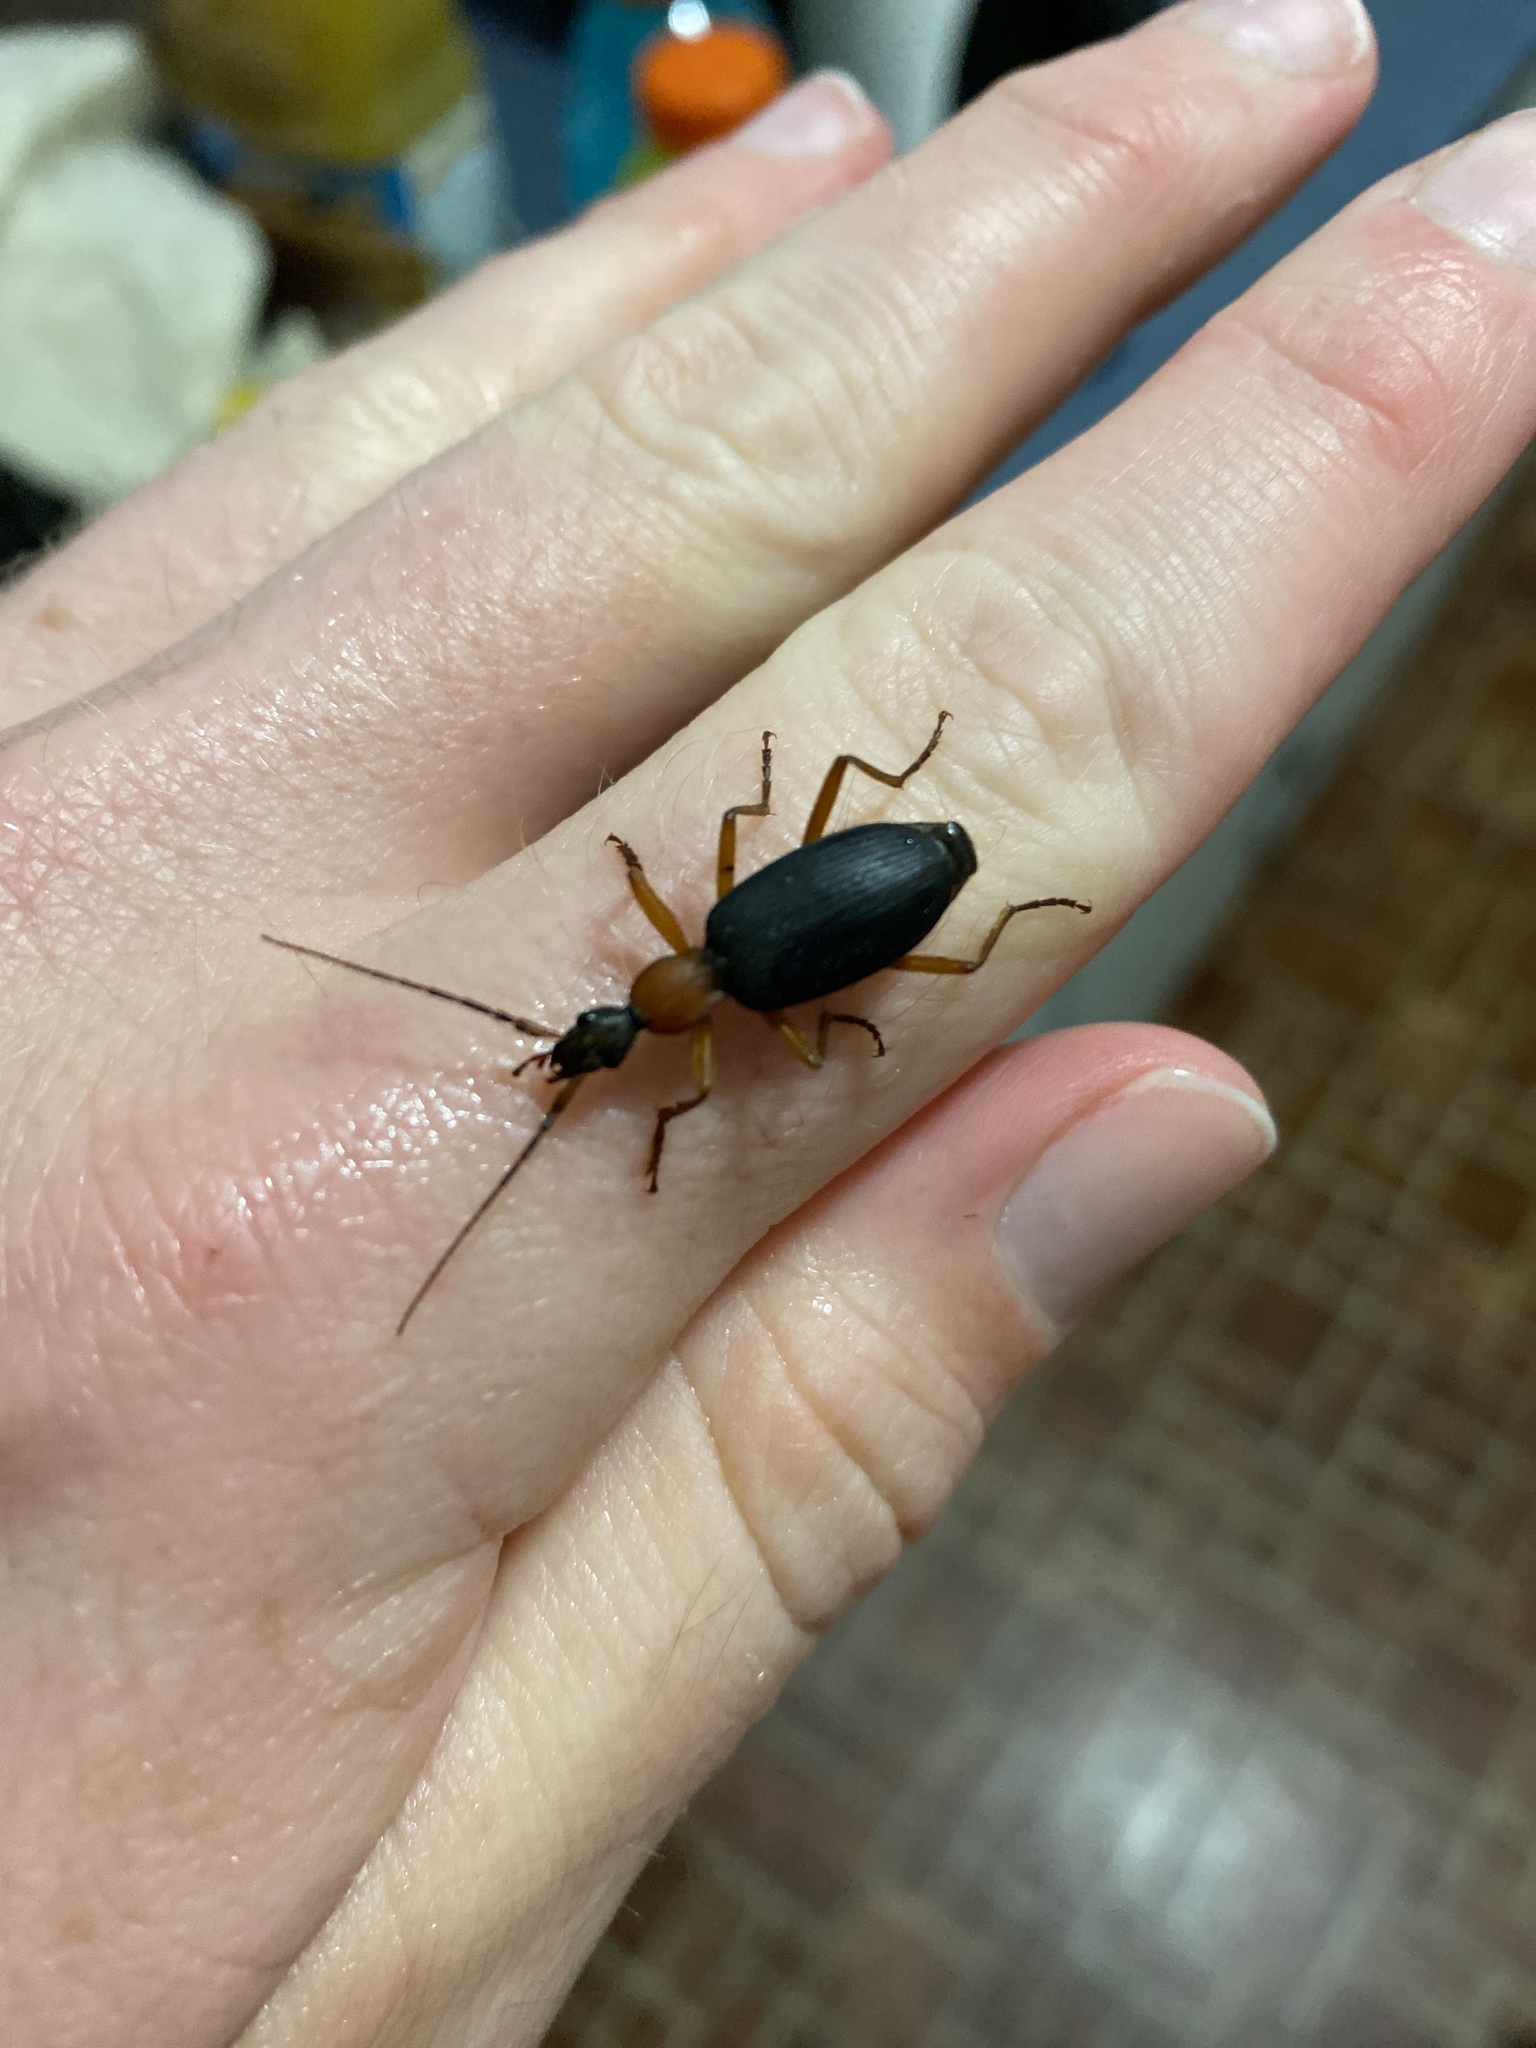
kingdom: Animalia
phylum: Arthropoda
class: Insecta
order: Coleoptera
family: Carabidae
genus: Galerita
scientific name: Galerita bicolor
